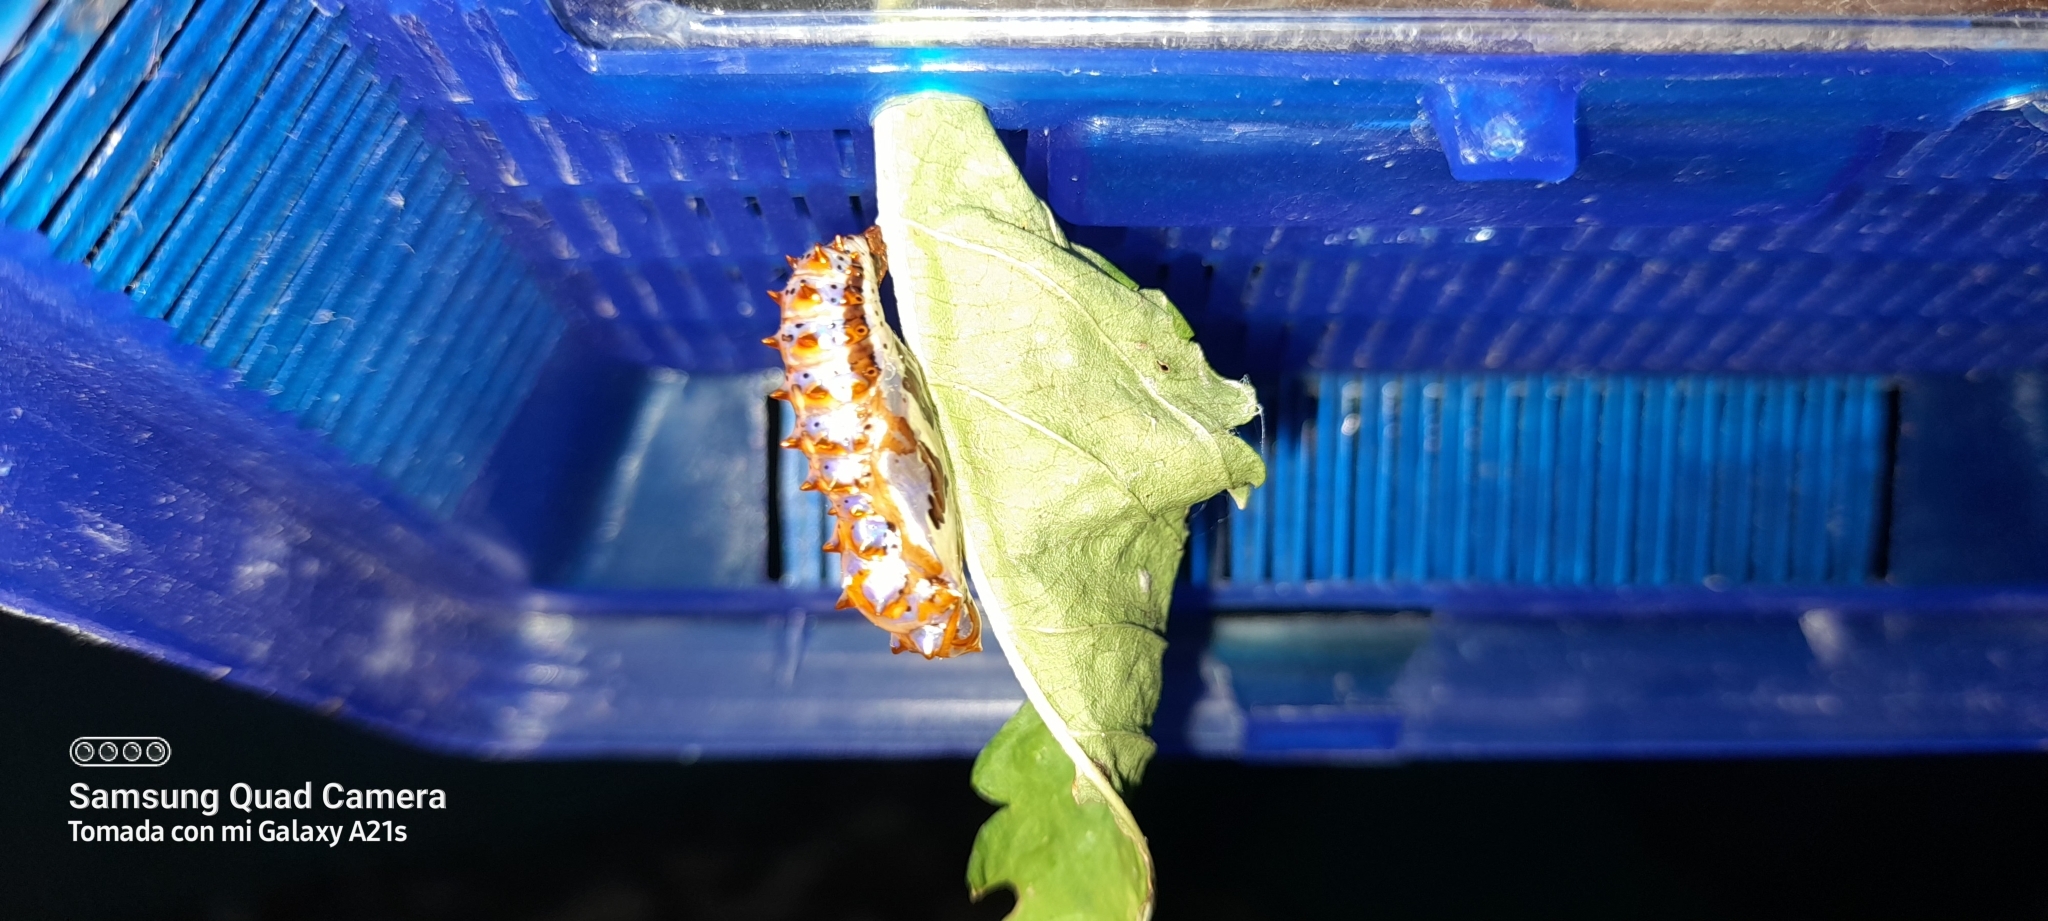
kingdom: Animalia
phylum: Arthropoda
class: Insecta
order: Lepidoptera
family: Nymphalidae
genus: Euptoieta
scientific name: Euptoieta hegesia
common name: Mexican fritillary
